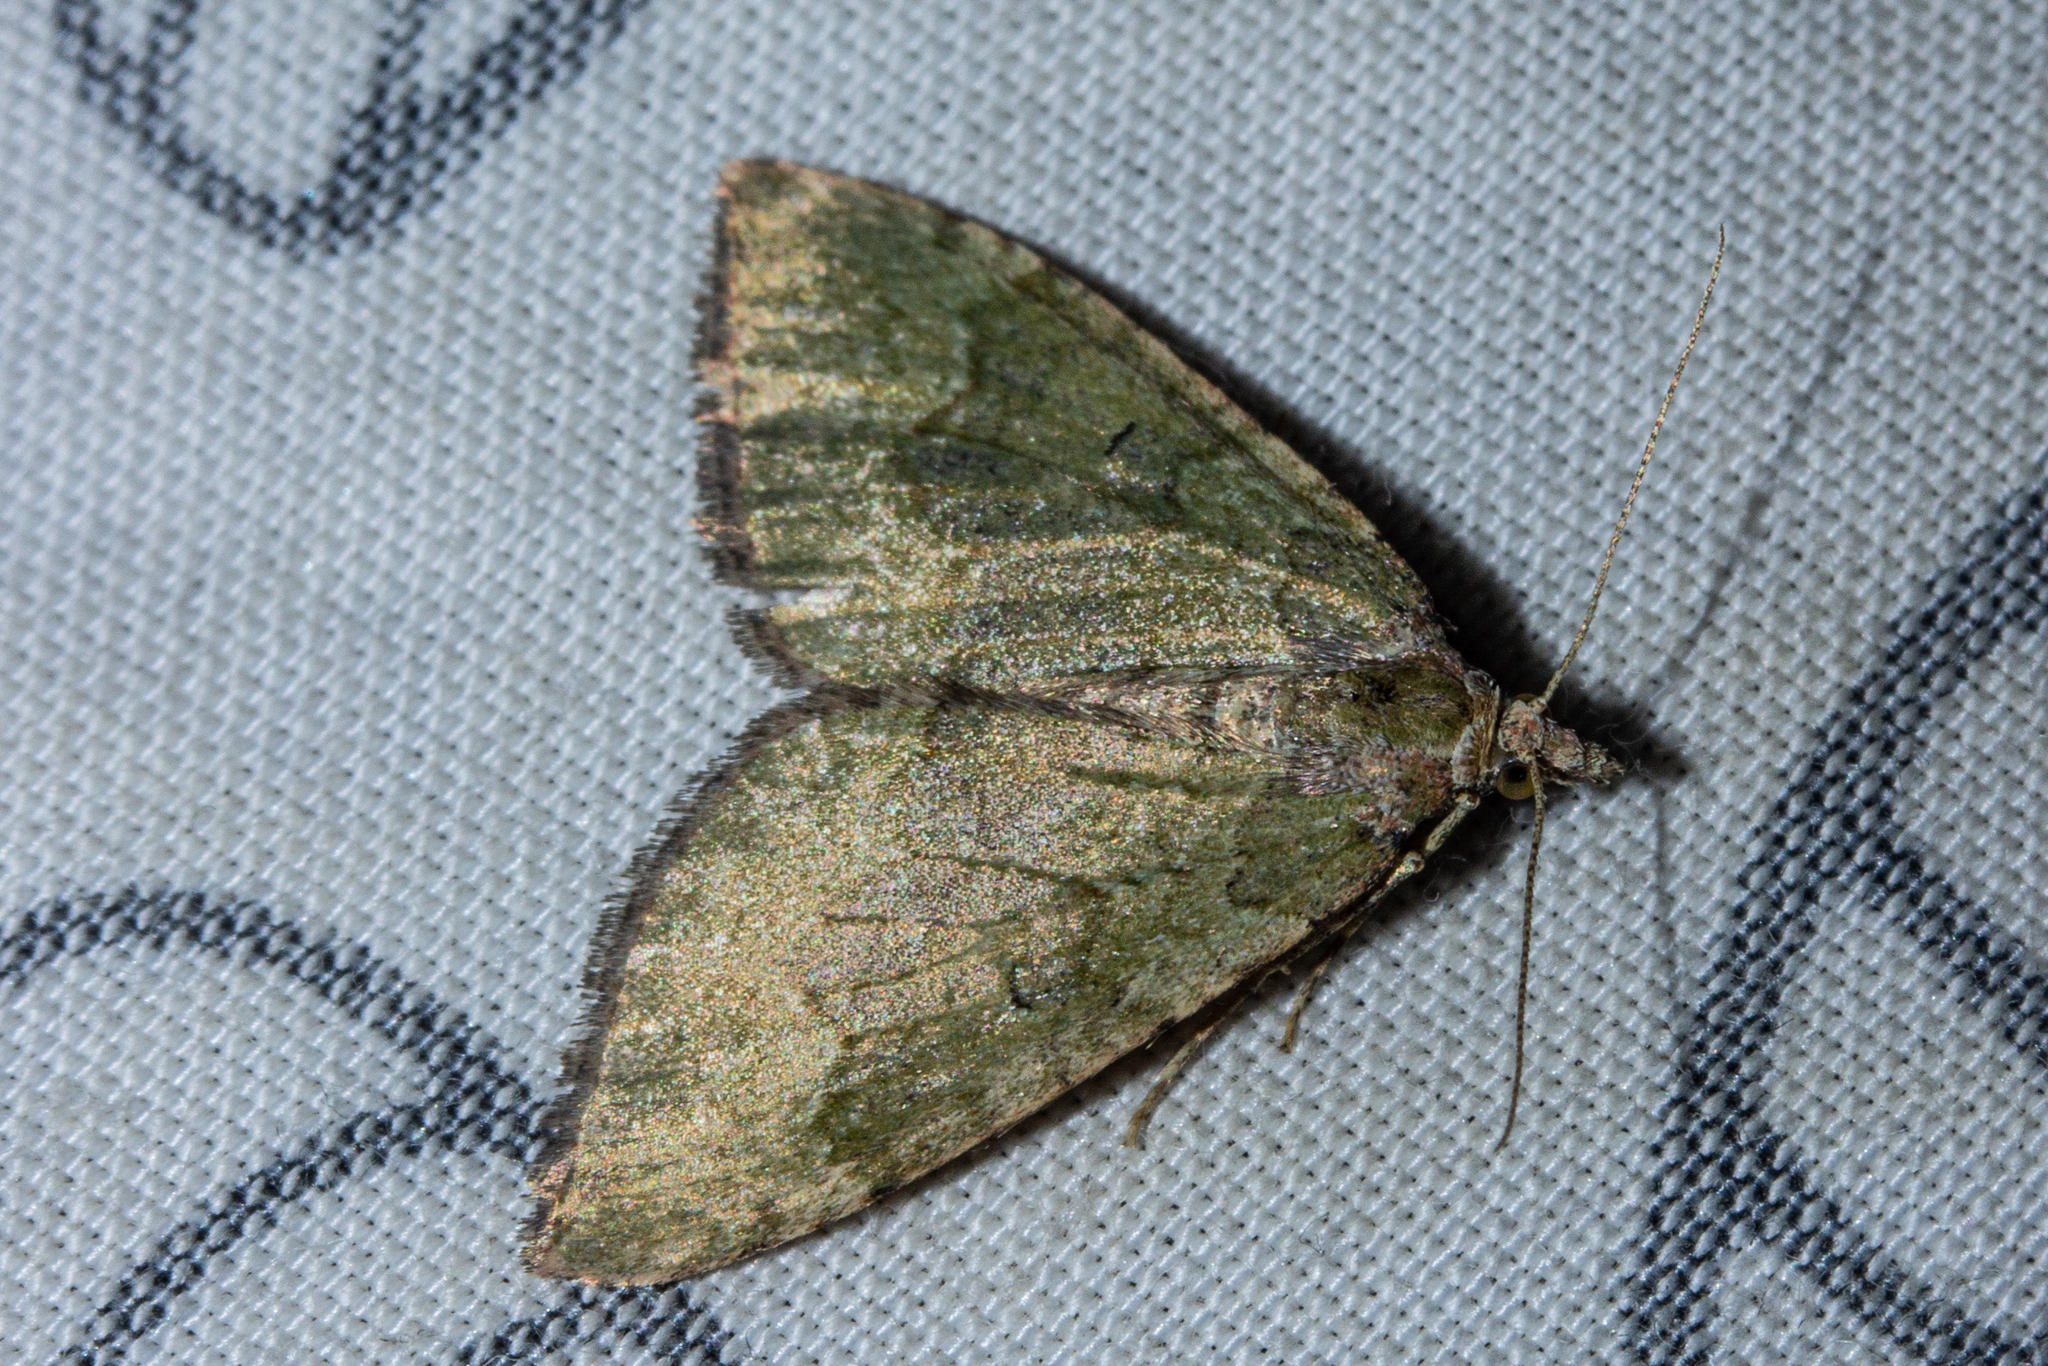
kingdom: Animalia
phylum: Arthropoda
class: Insecta
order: Lepidoptera
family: Geometridae
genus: Epyaxa
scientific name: Epyaxa rosearia
